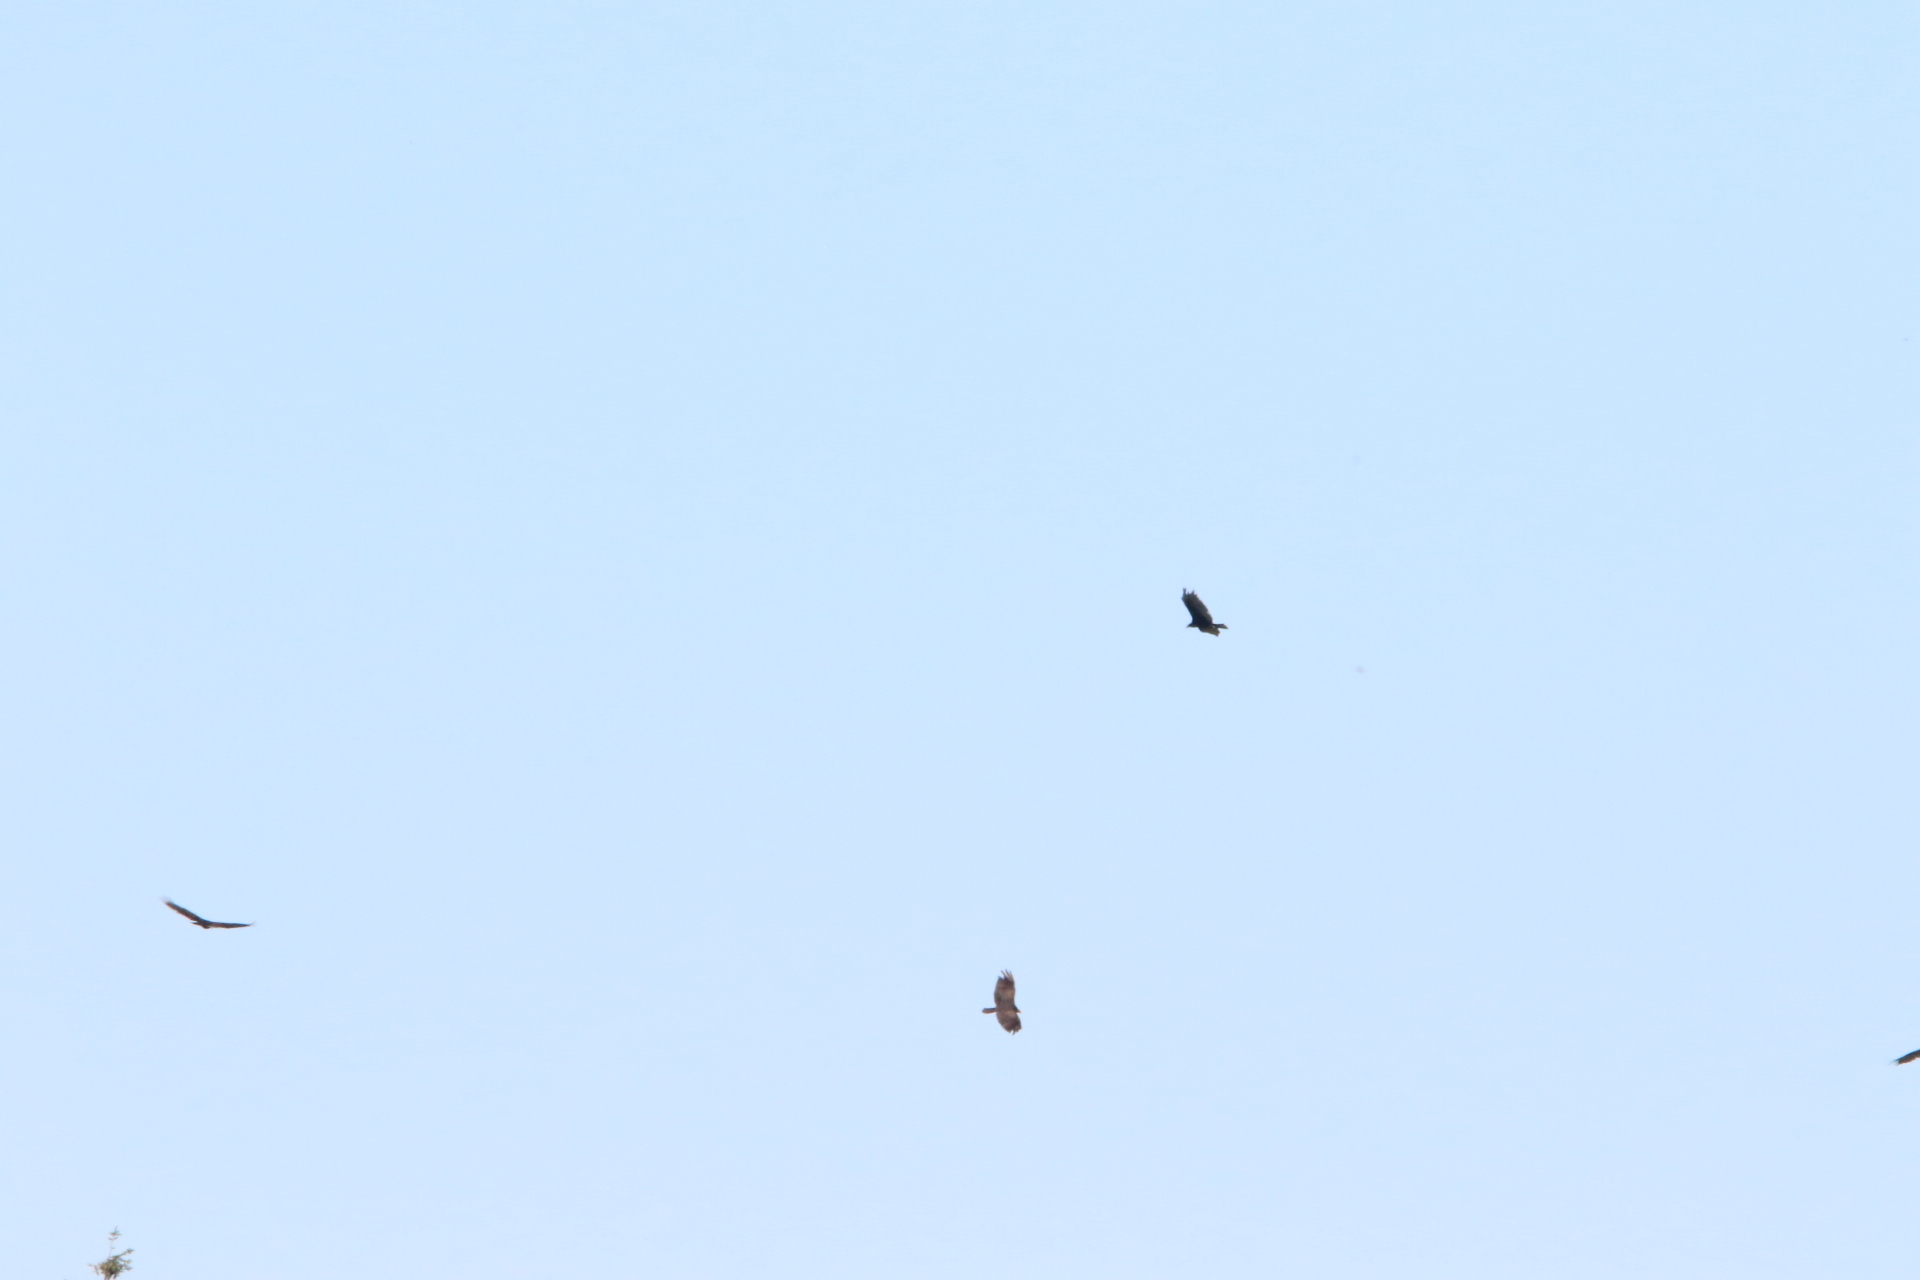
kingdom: Animalia
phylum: Chordata
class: Aves
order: Accipitriformes
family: Cathartidae
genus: Cathartes
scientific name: Cathartes aura
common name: Turkey vulture
